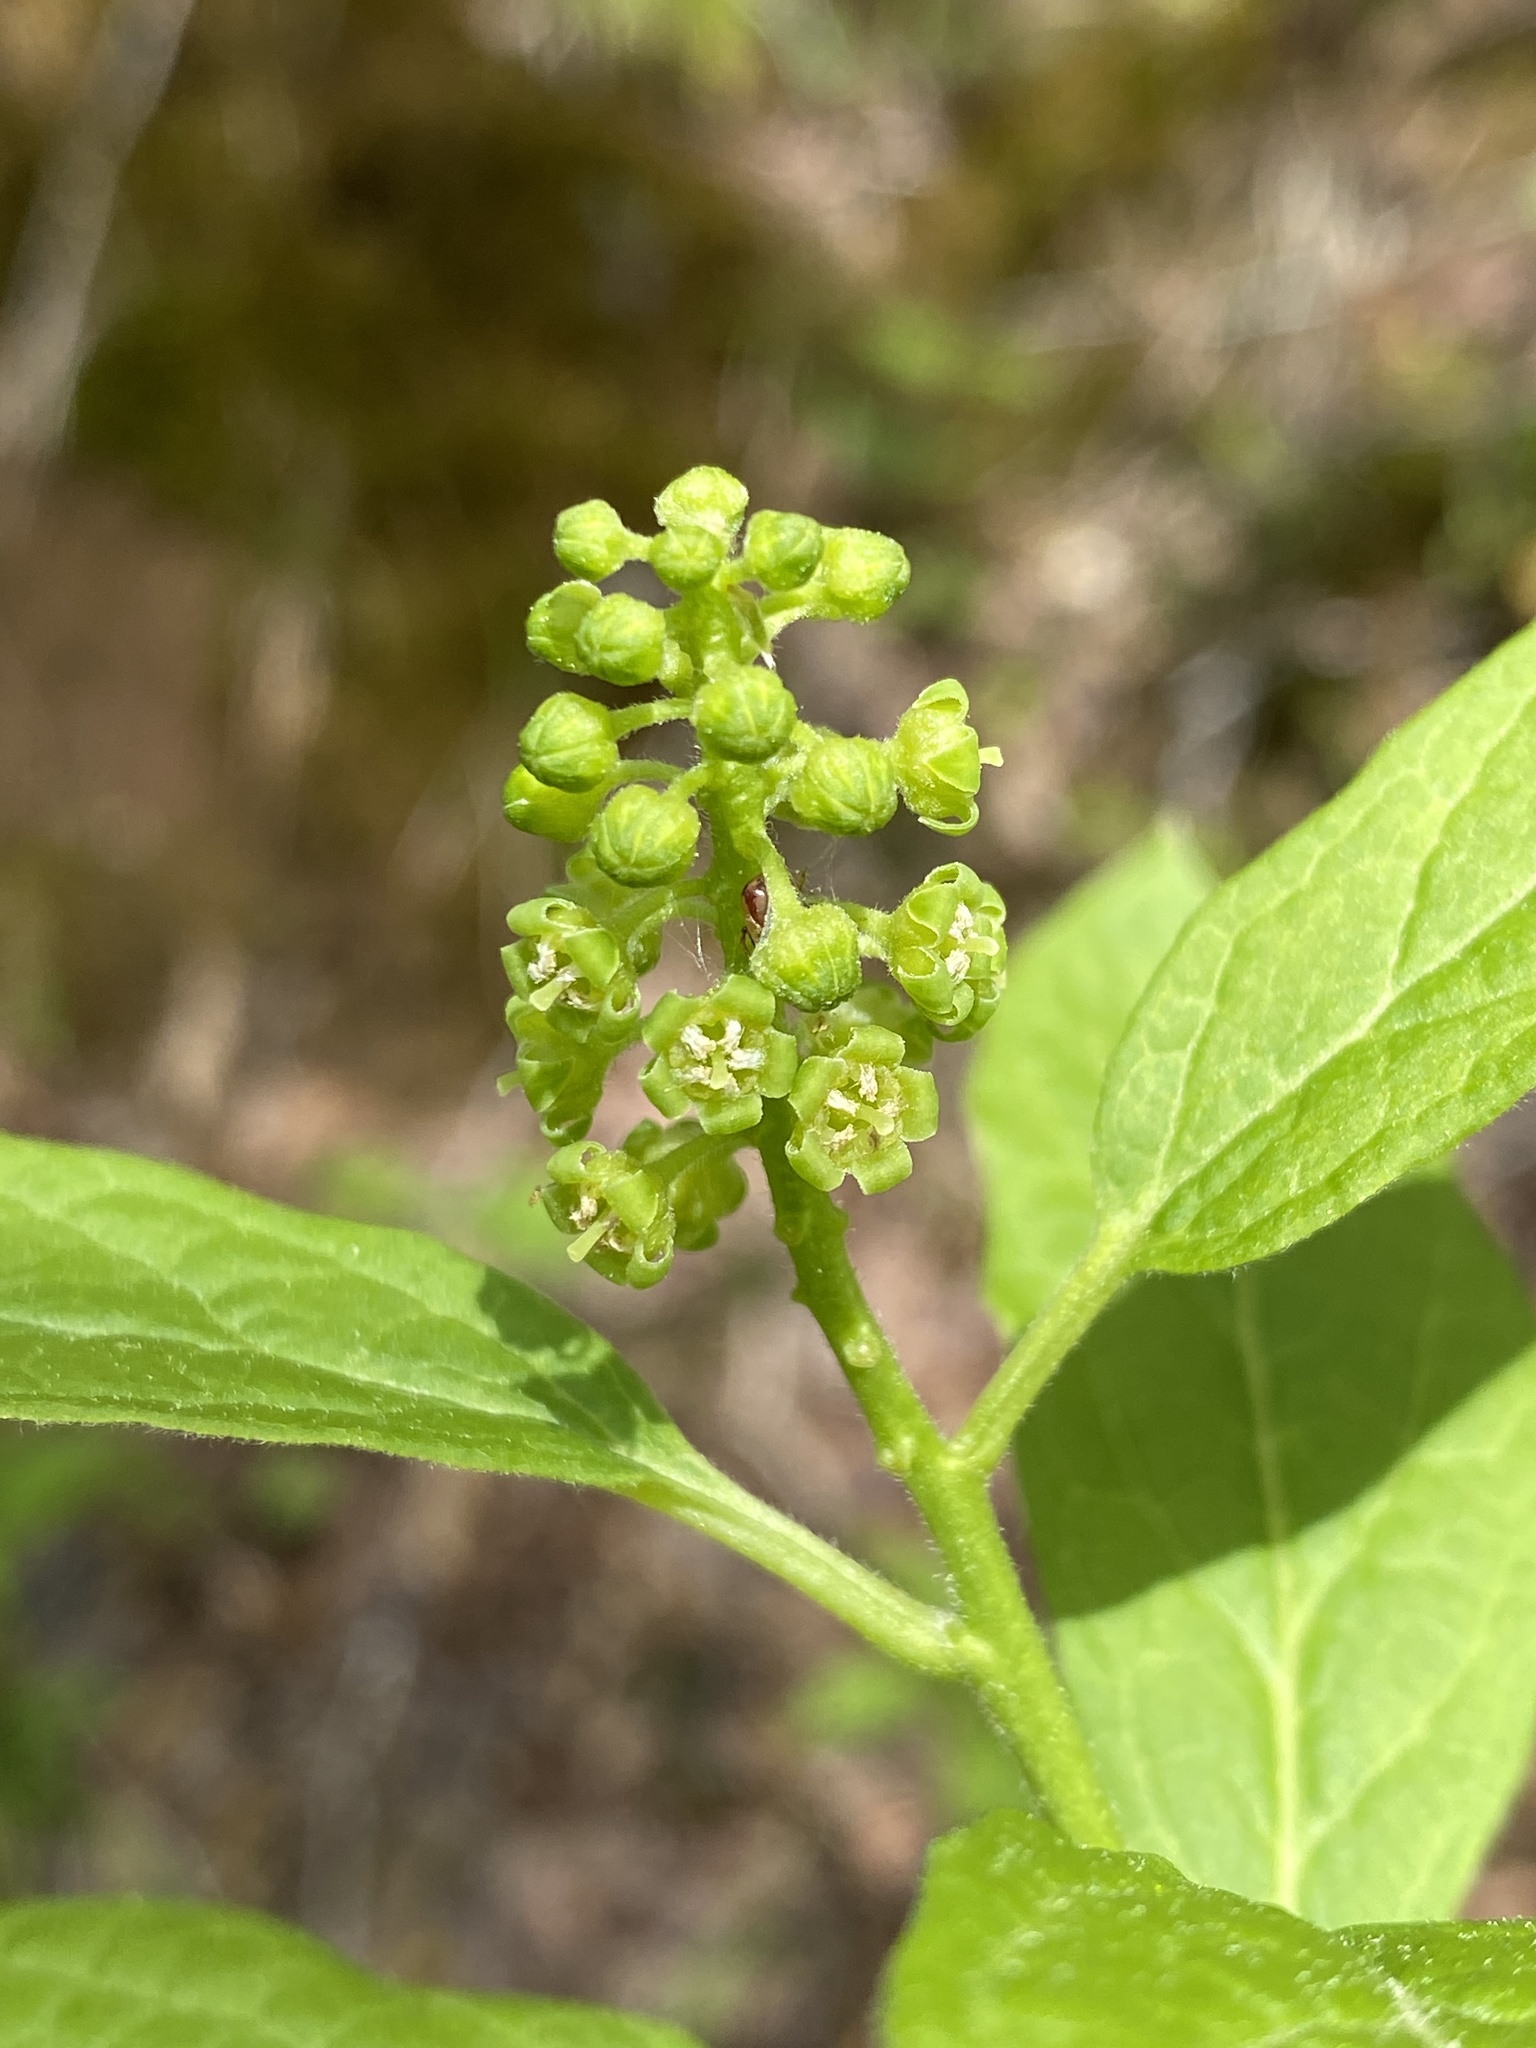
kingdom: Plantae
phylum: Tracheophyta
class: Magnoliopsida
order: Santalales
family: Cervantesiaceae
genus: Pyrularia
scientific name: Pyrularia pubera
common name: Oilnut
